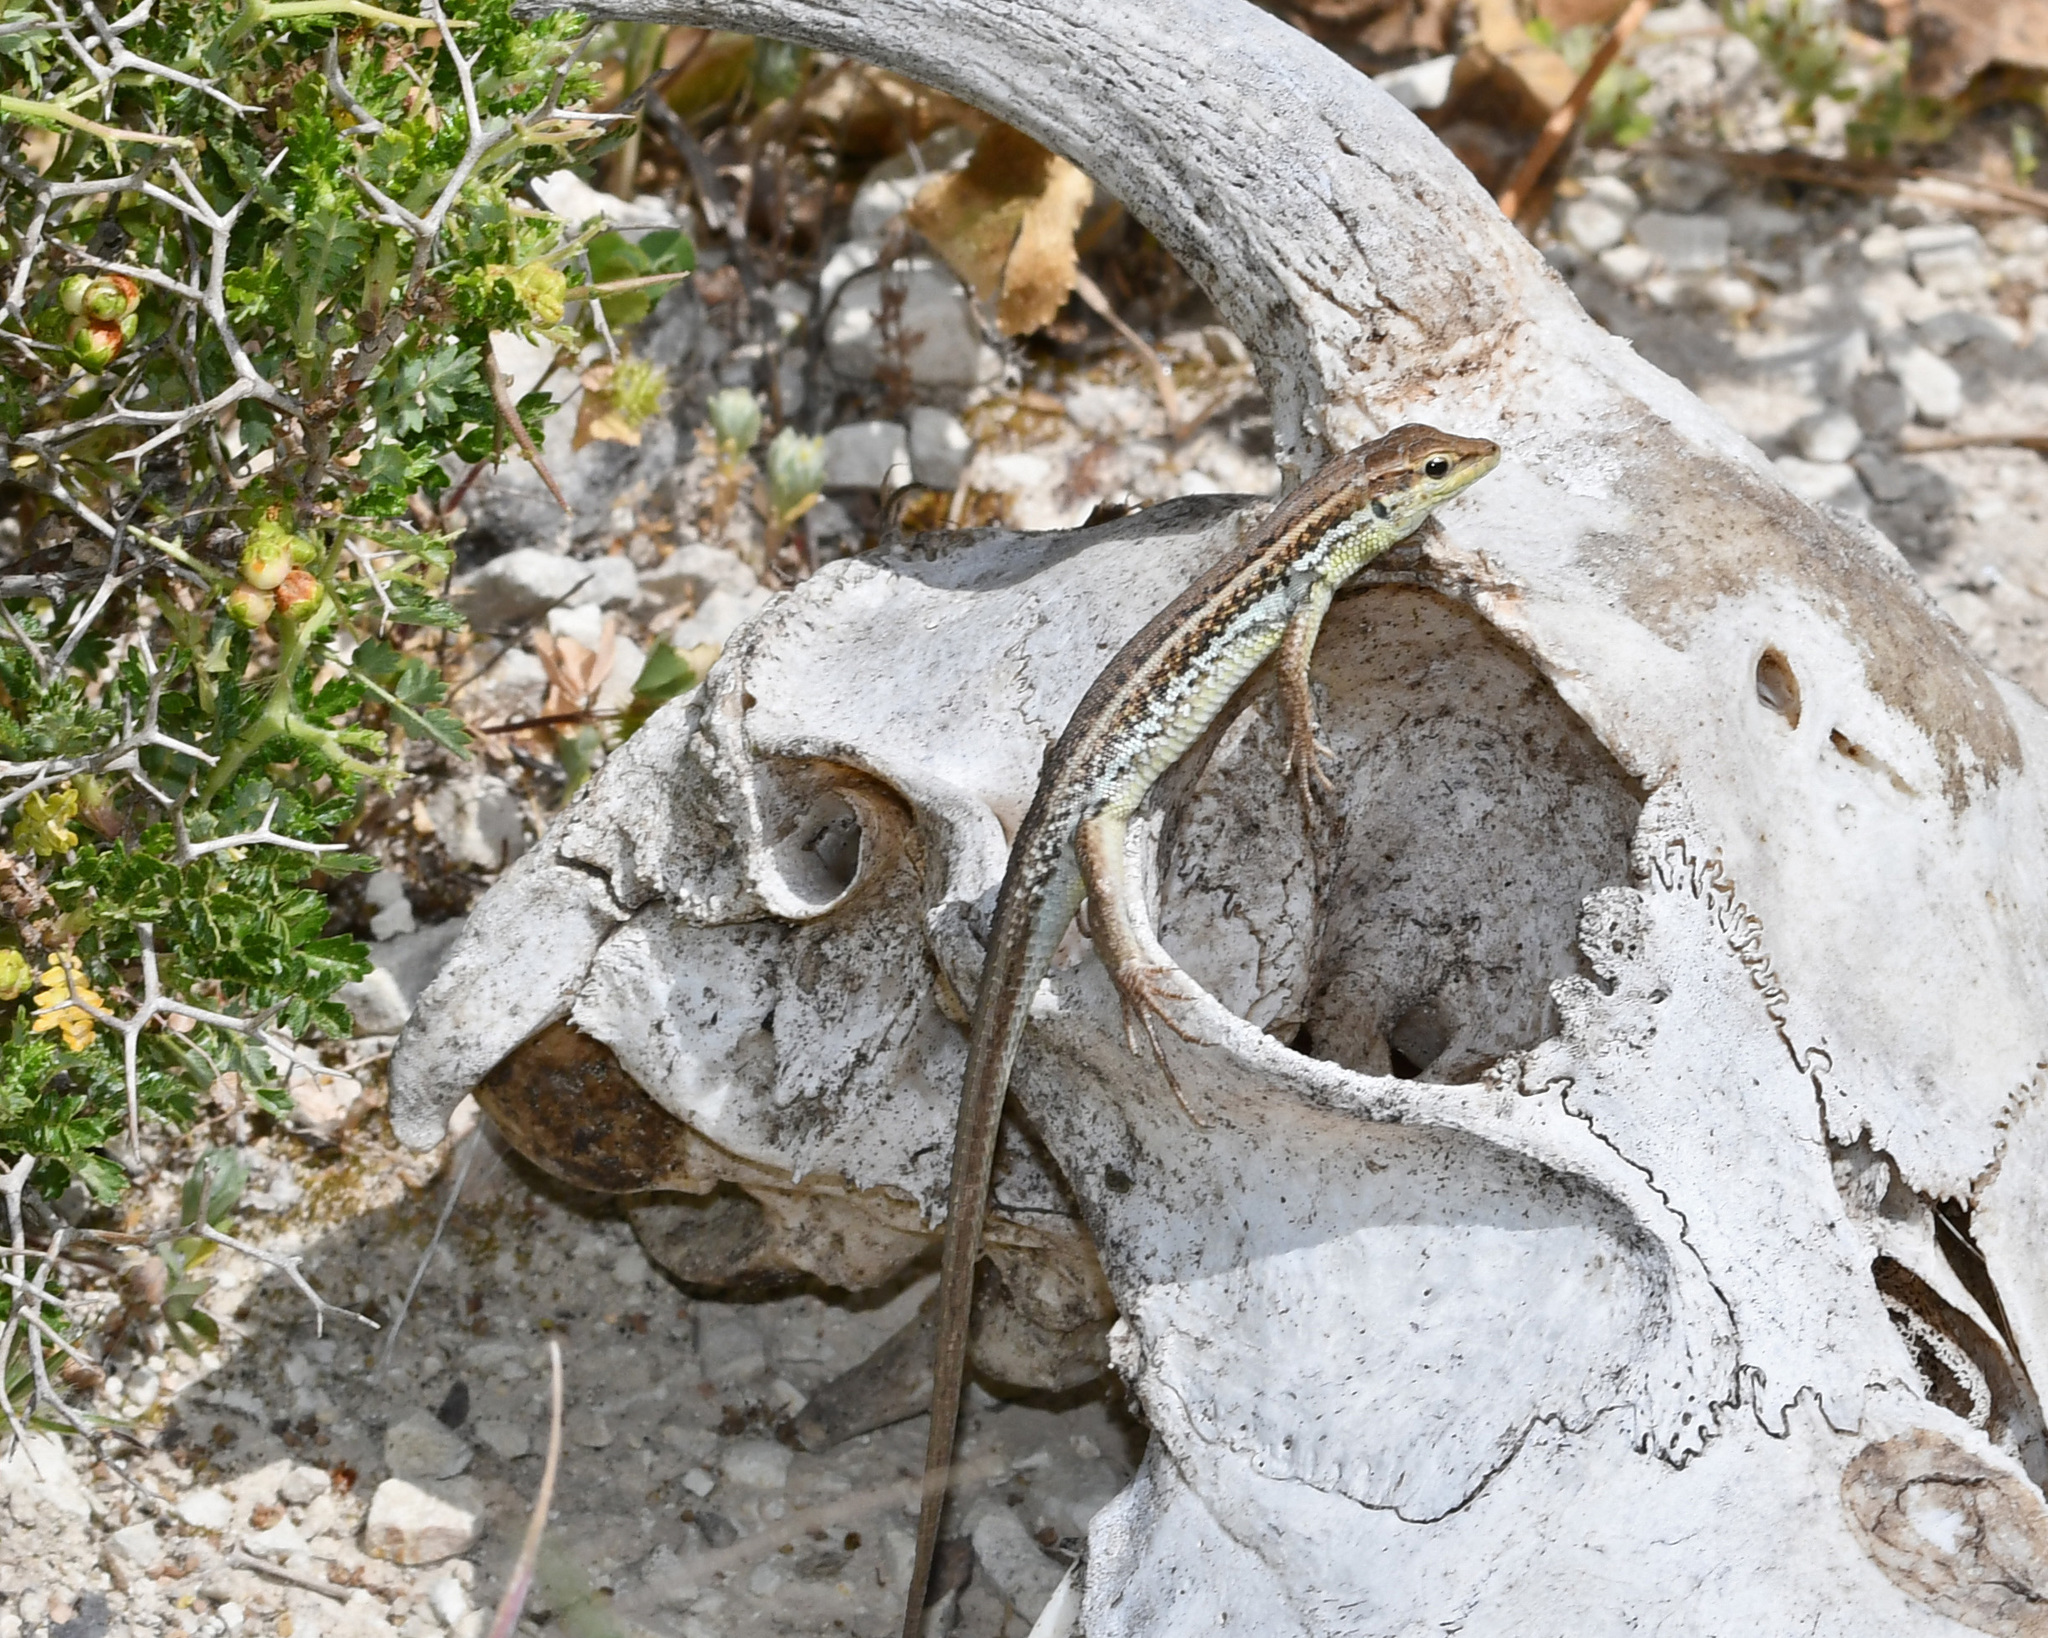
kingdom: Animalia
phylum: Chordata
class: Squamata
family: Lacertidae
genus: Ophisops
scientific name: Ophisops elegans
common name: Snake-eyed lizard
